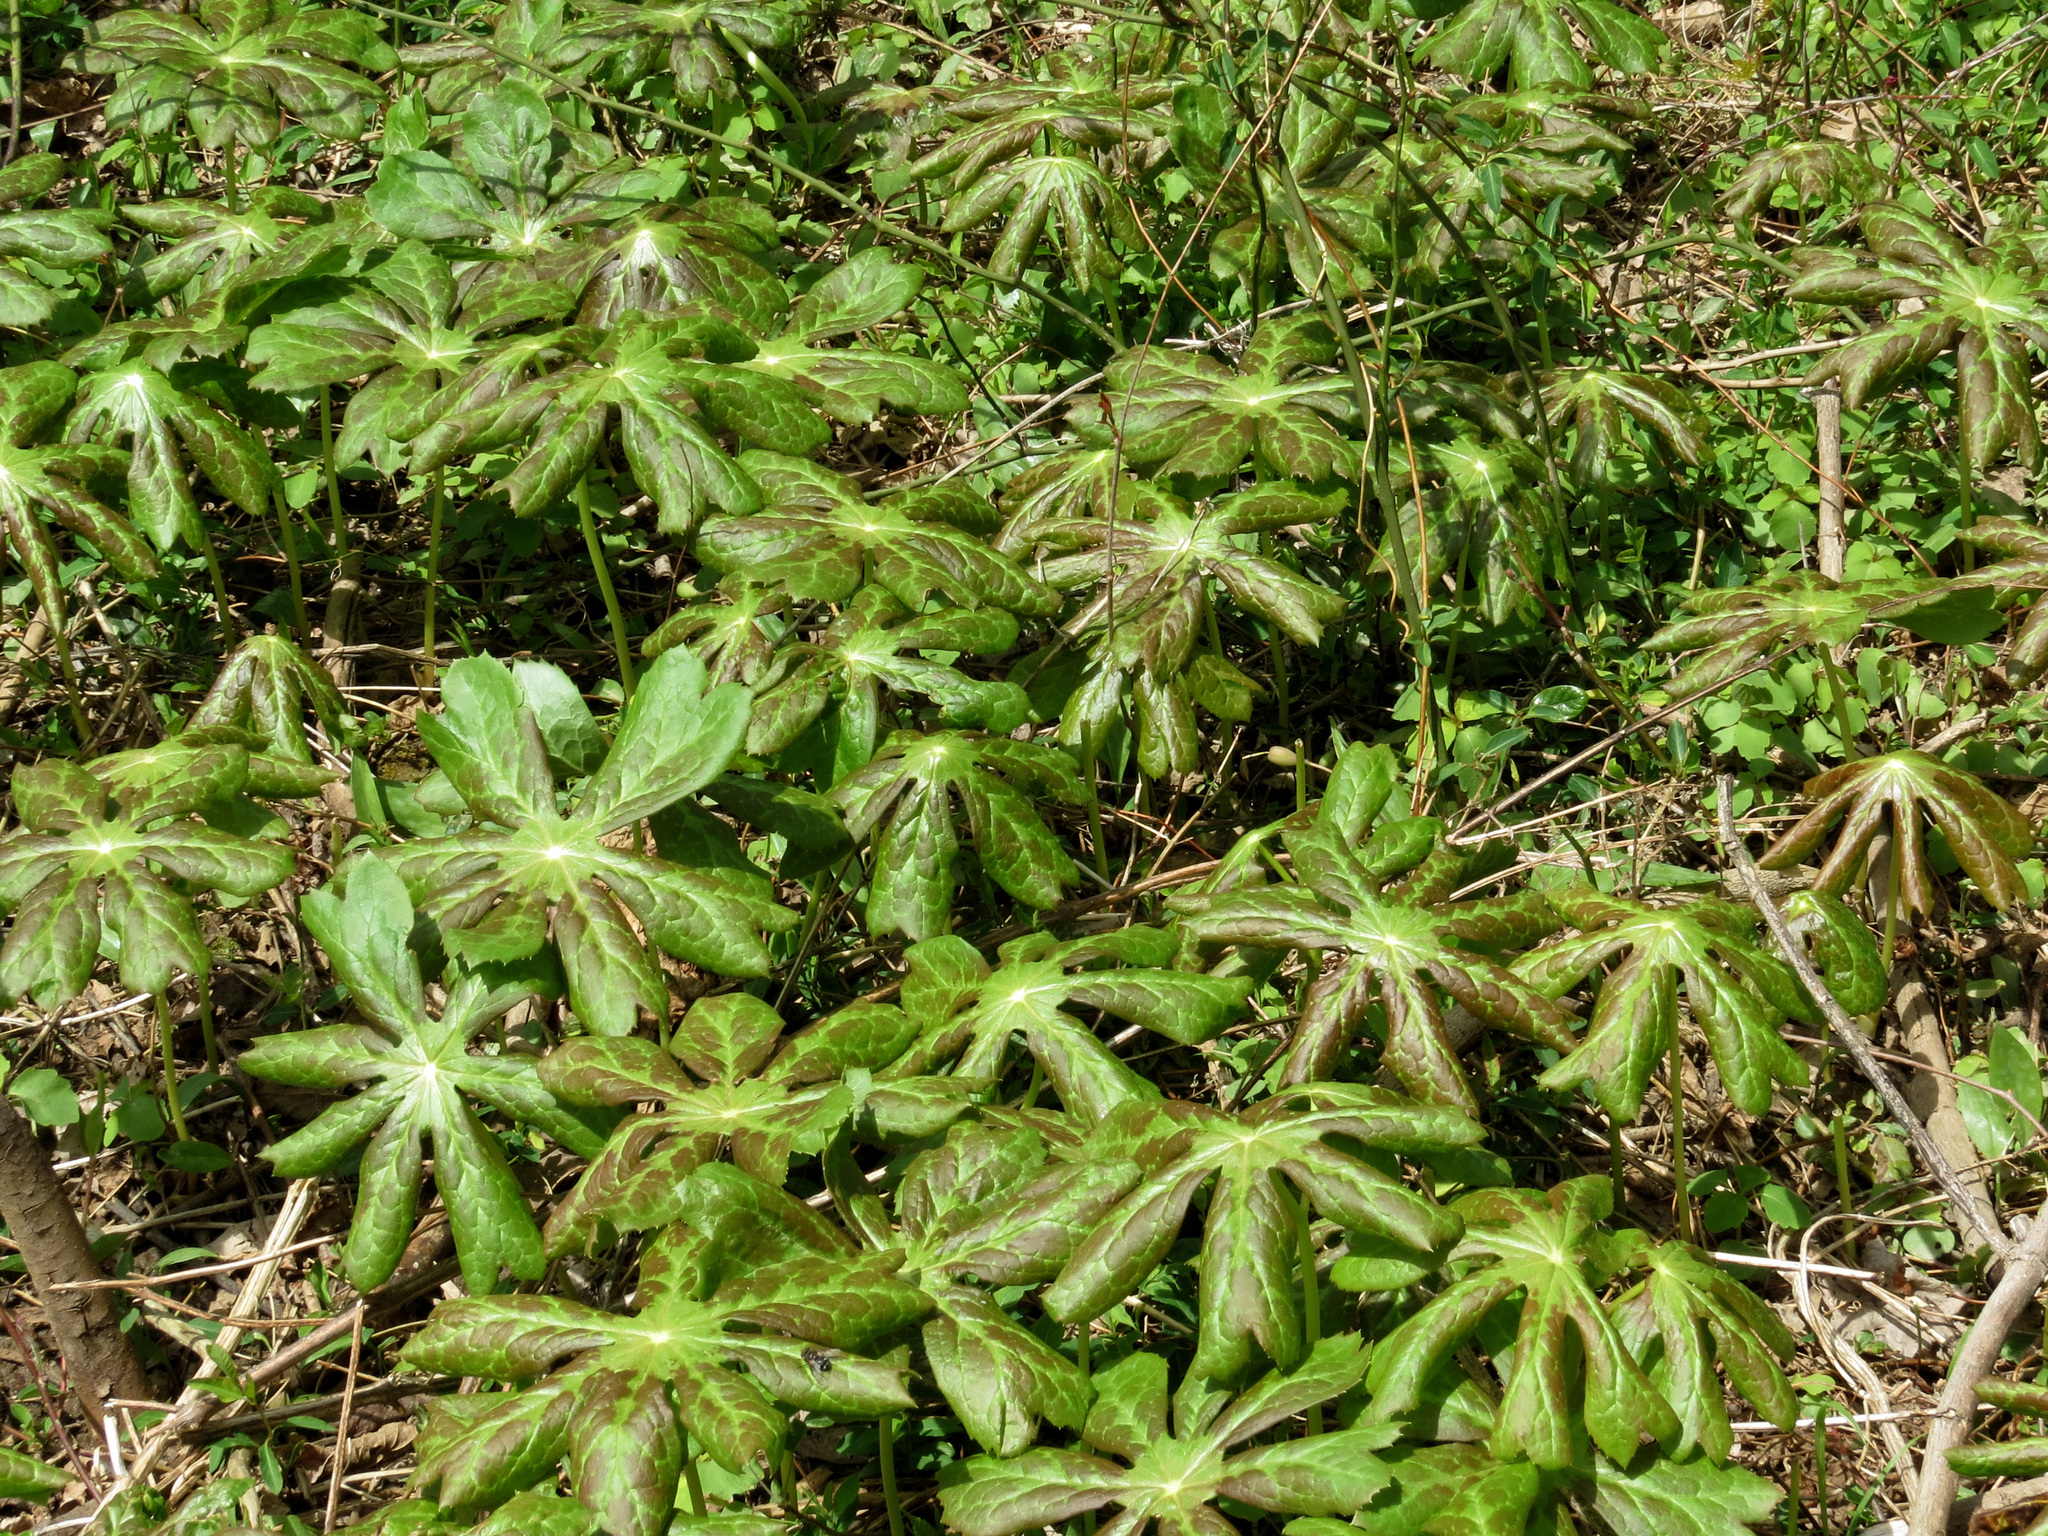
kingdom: Plantae
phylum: Tracheophyta
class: Magnoliopsida
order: Ranunculales
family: Berberidaceae
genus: Podophyllum
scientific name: Podophyllum peltatum
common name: Wild mandrake
